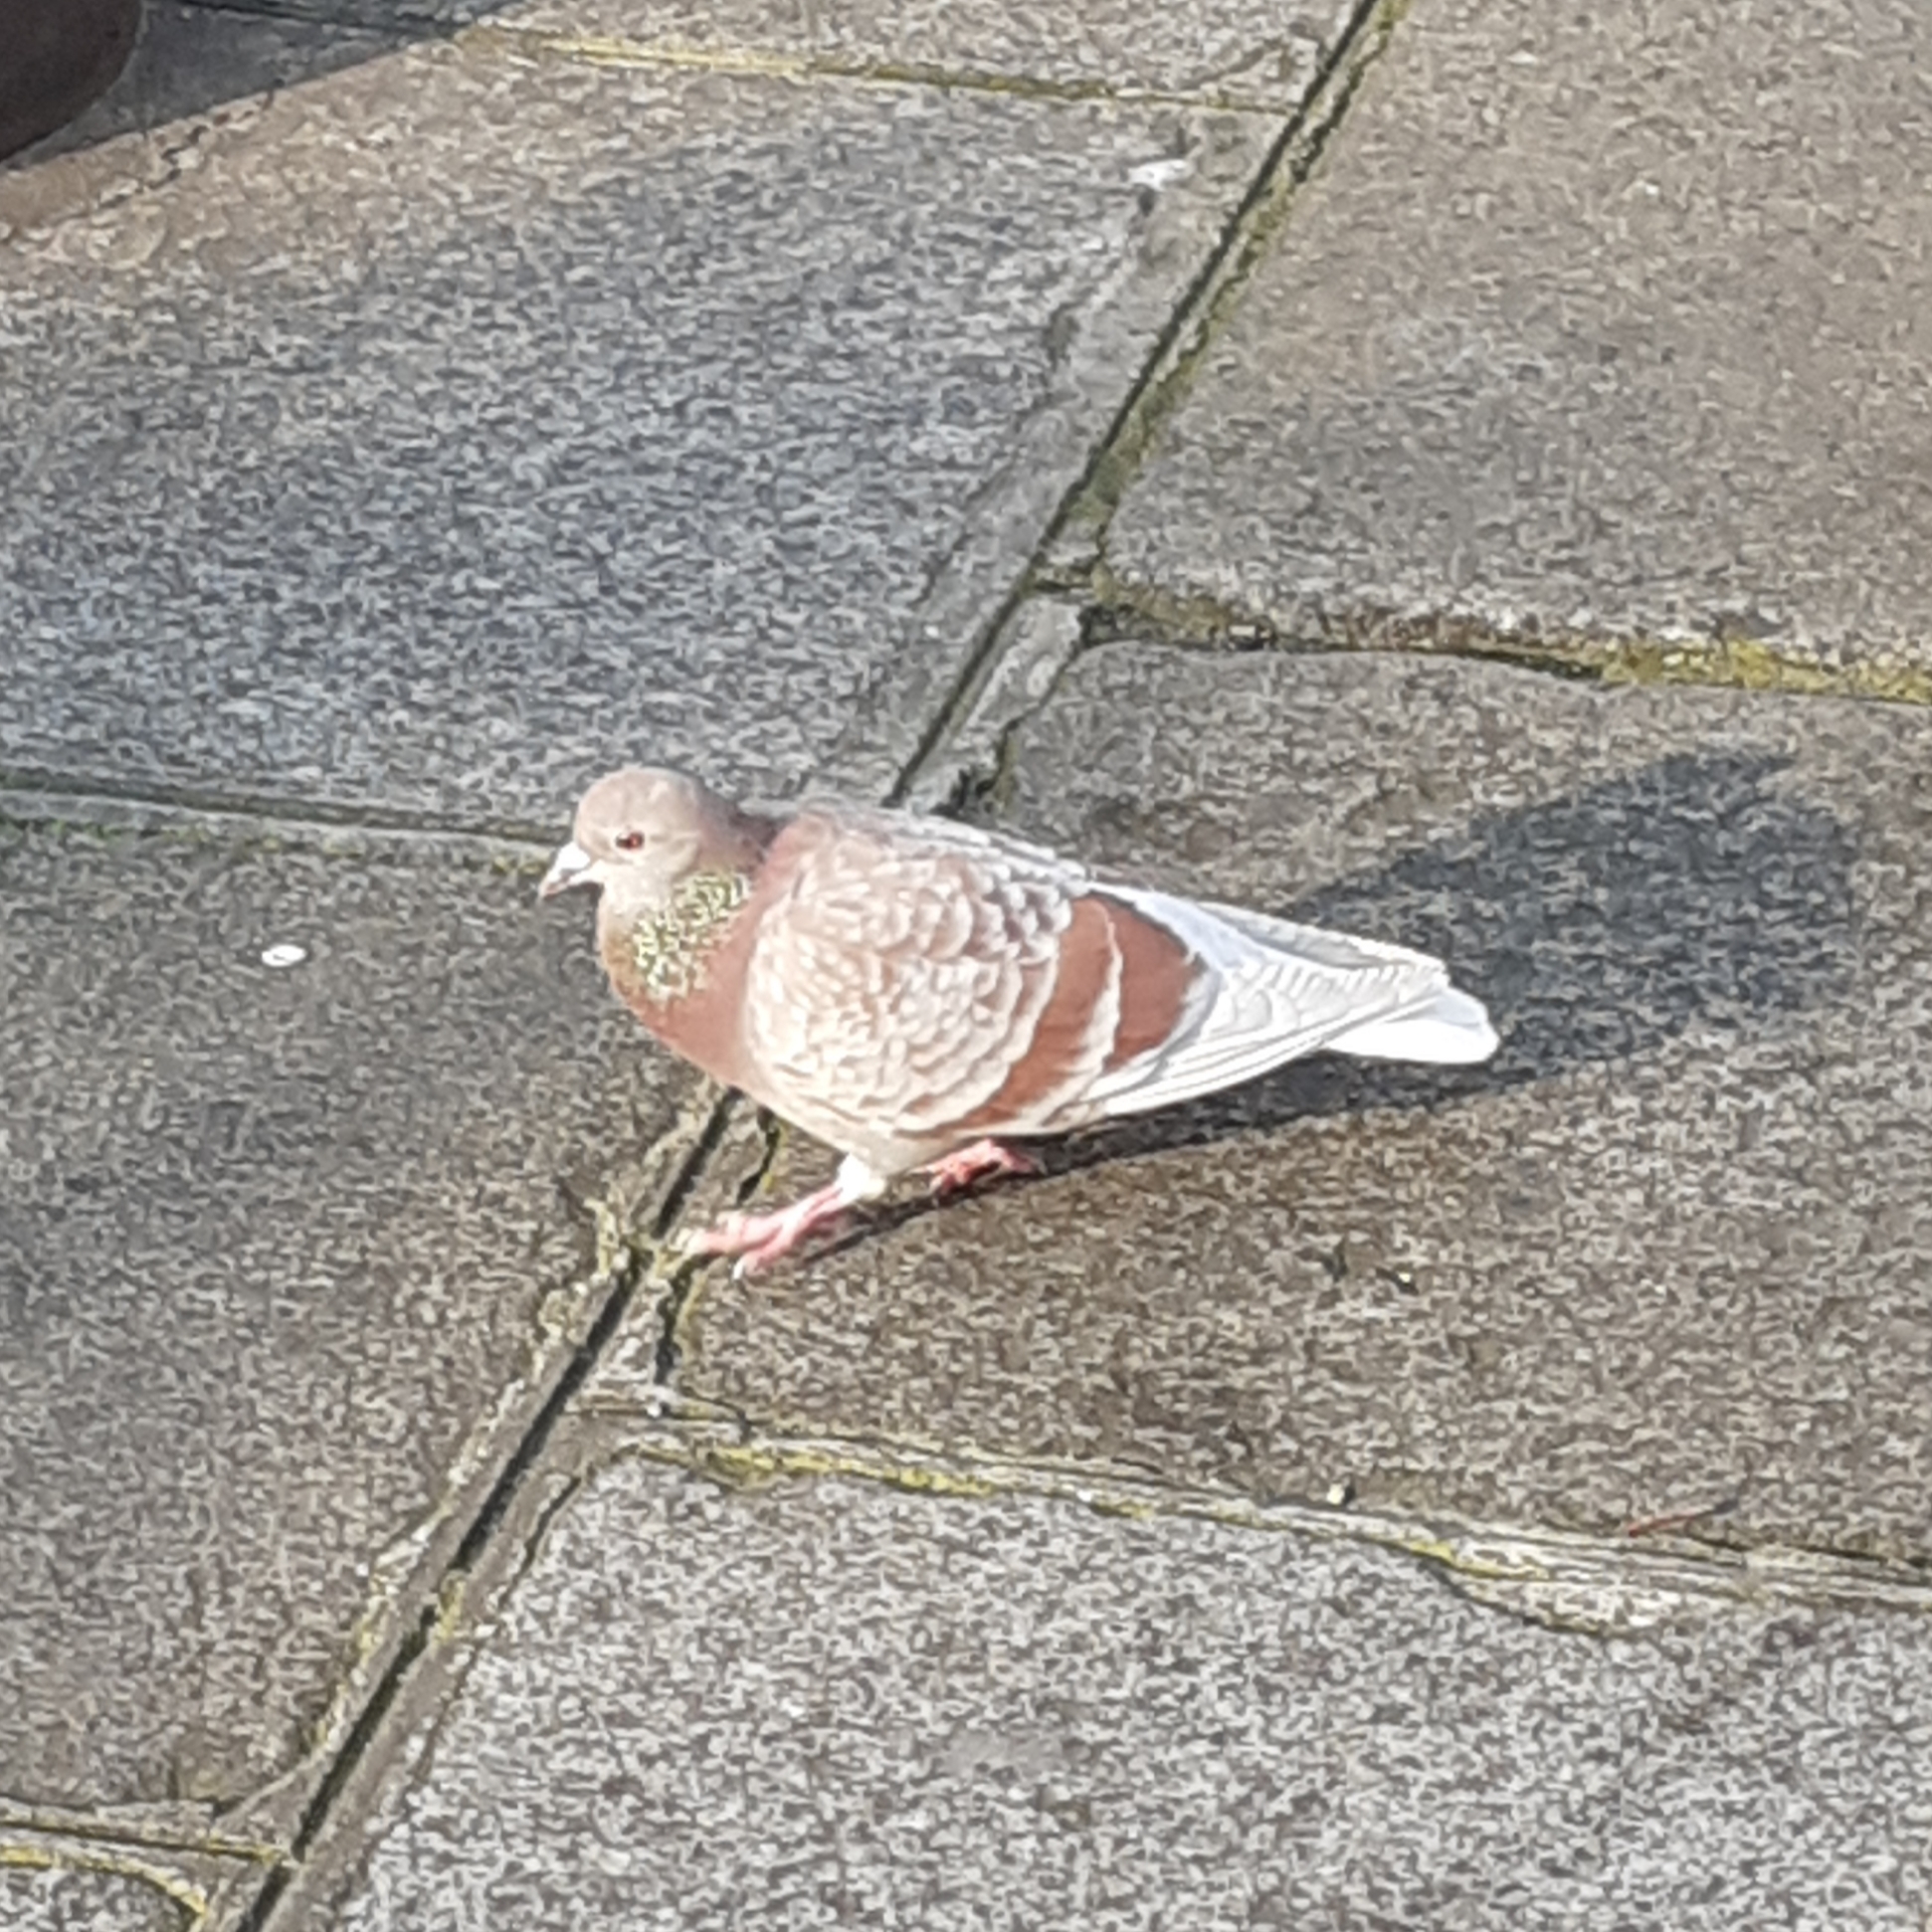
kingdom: Animalia
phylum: Chordata
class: Aves
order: Columbiformes
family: Columbidae
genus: Columba
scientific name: Columba livia
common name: Rock pigeon
